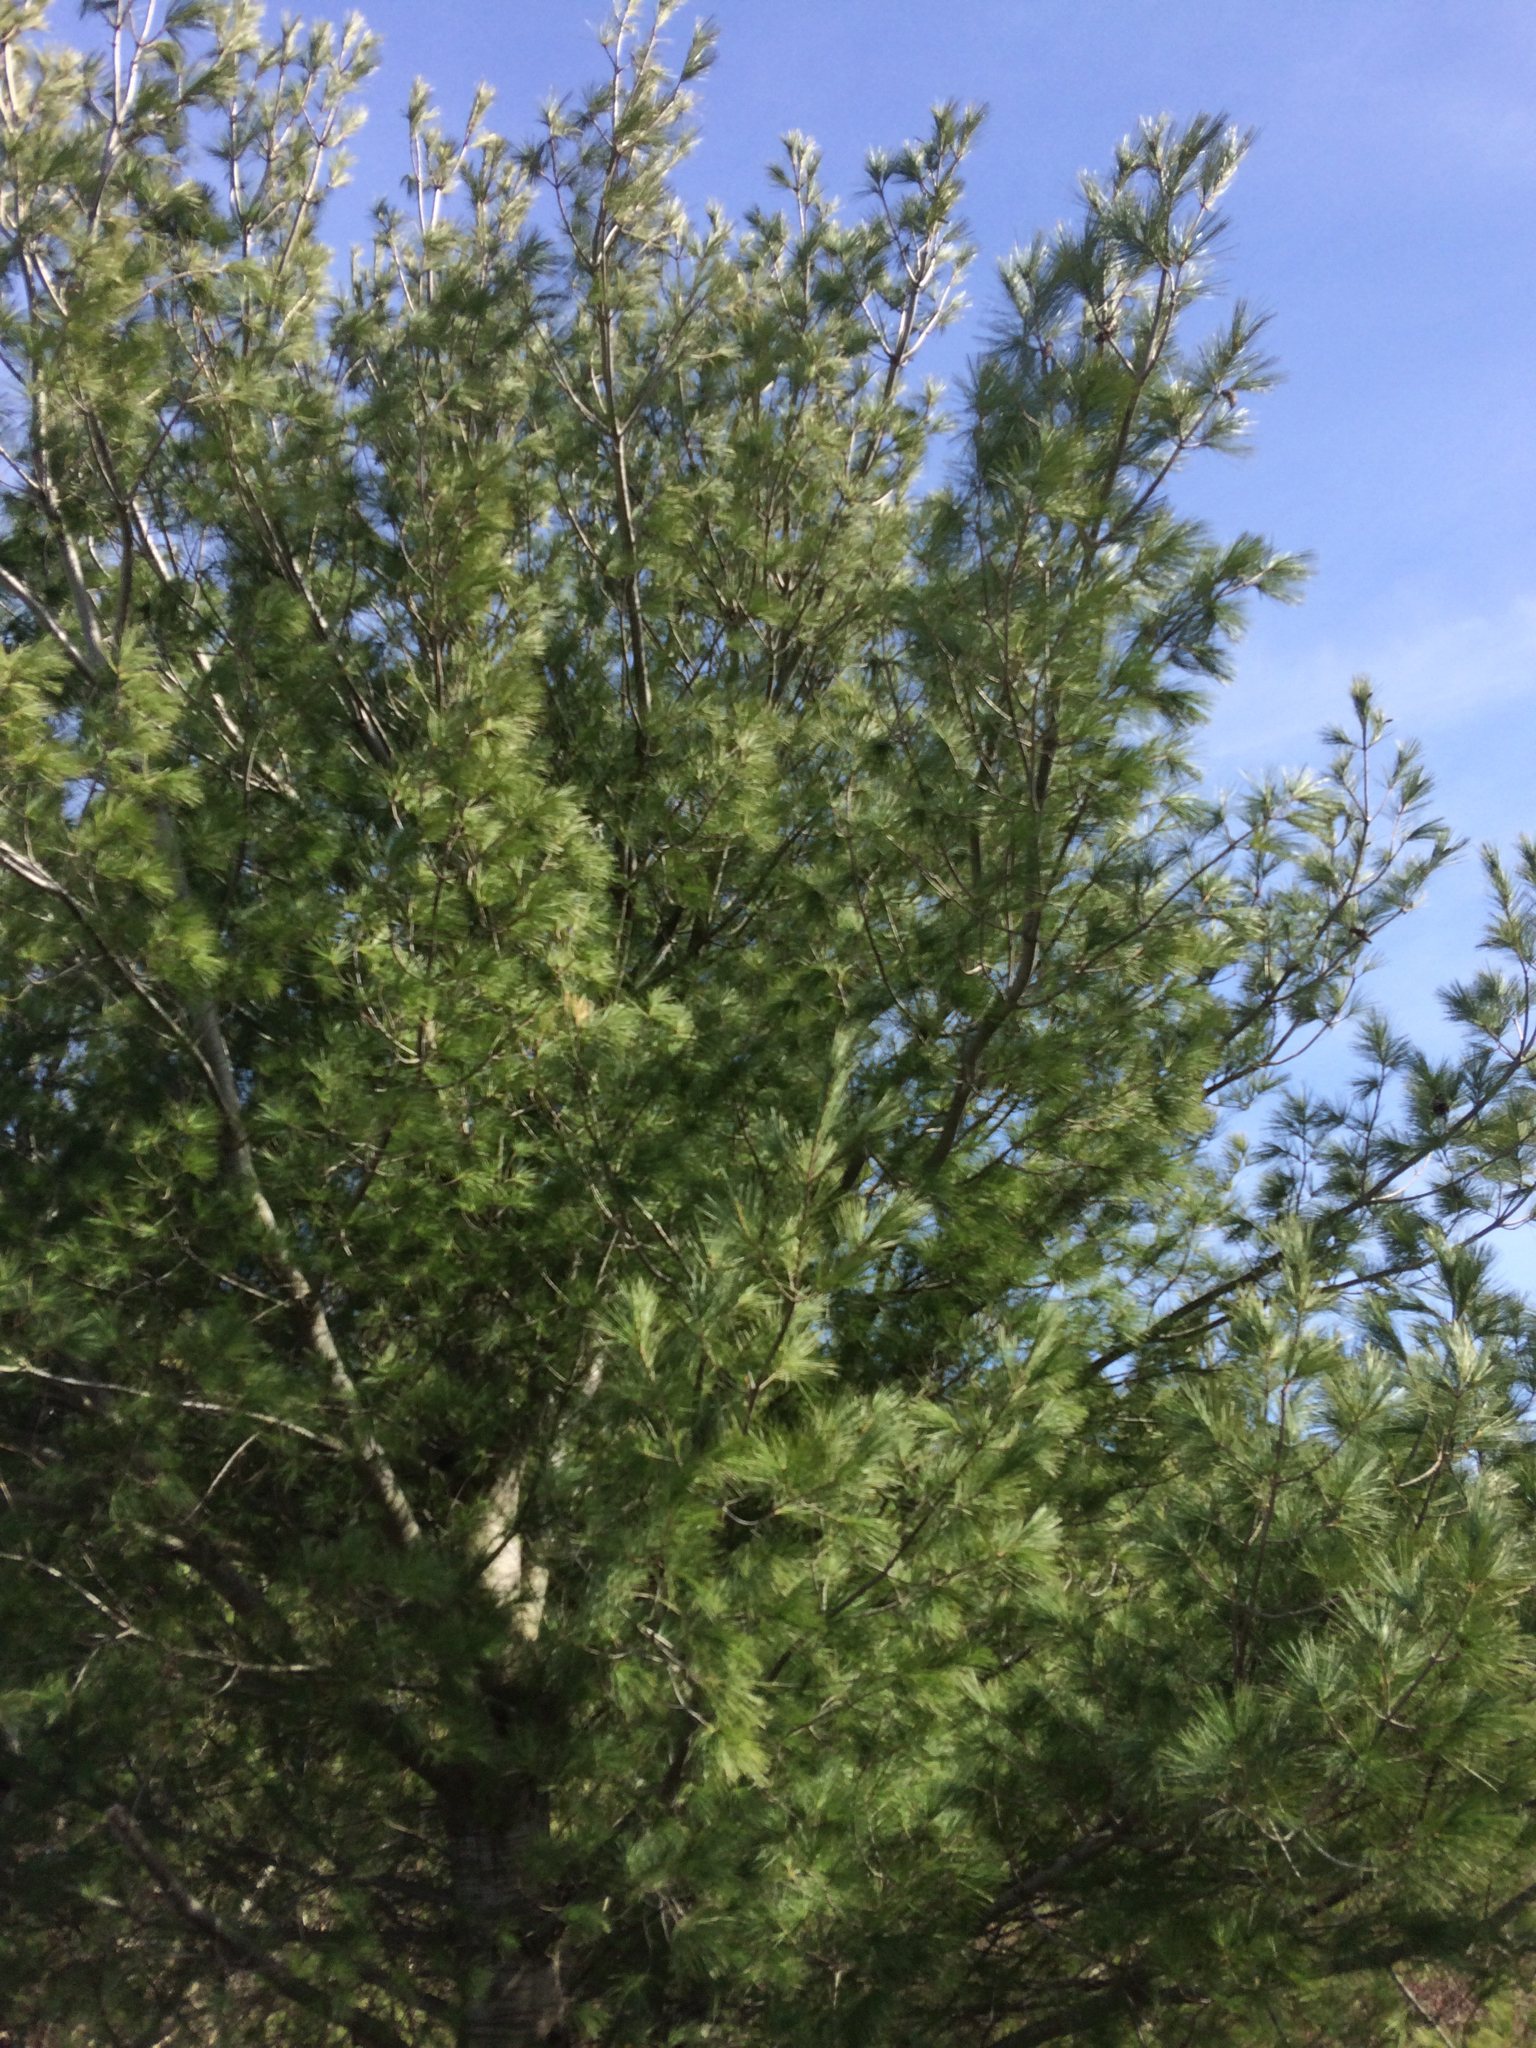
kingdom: Plantae
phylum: Tracheophyta
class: Pinopsida
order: Pinales
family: Pinaceae
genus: Pinus
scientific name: Pinus strobus
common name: Weymouth pine
